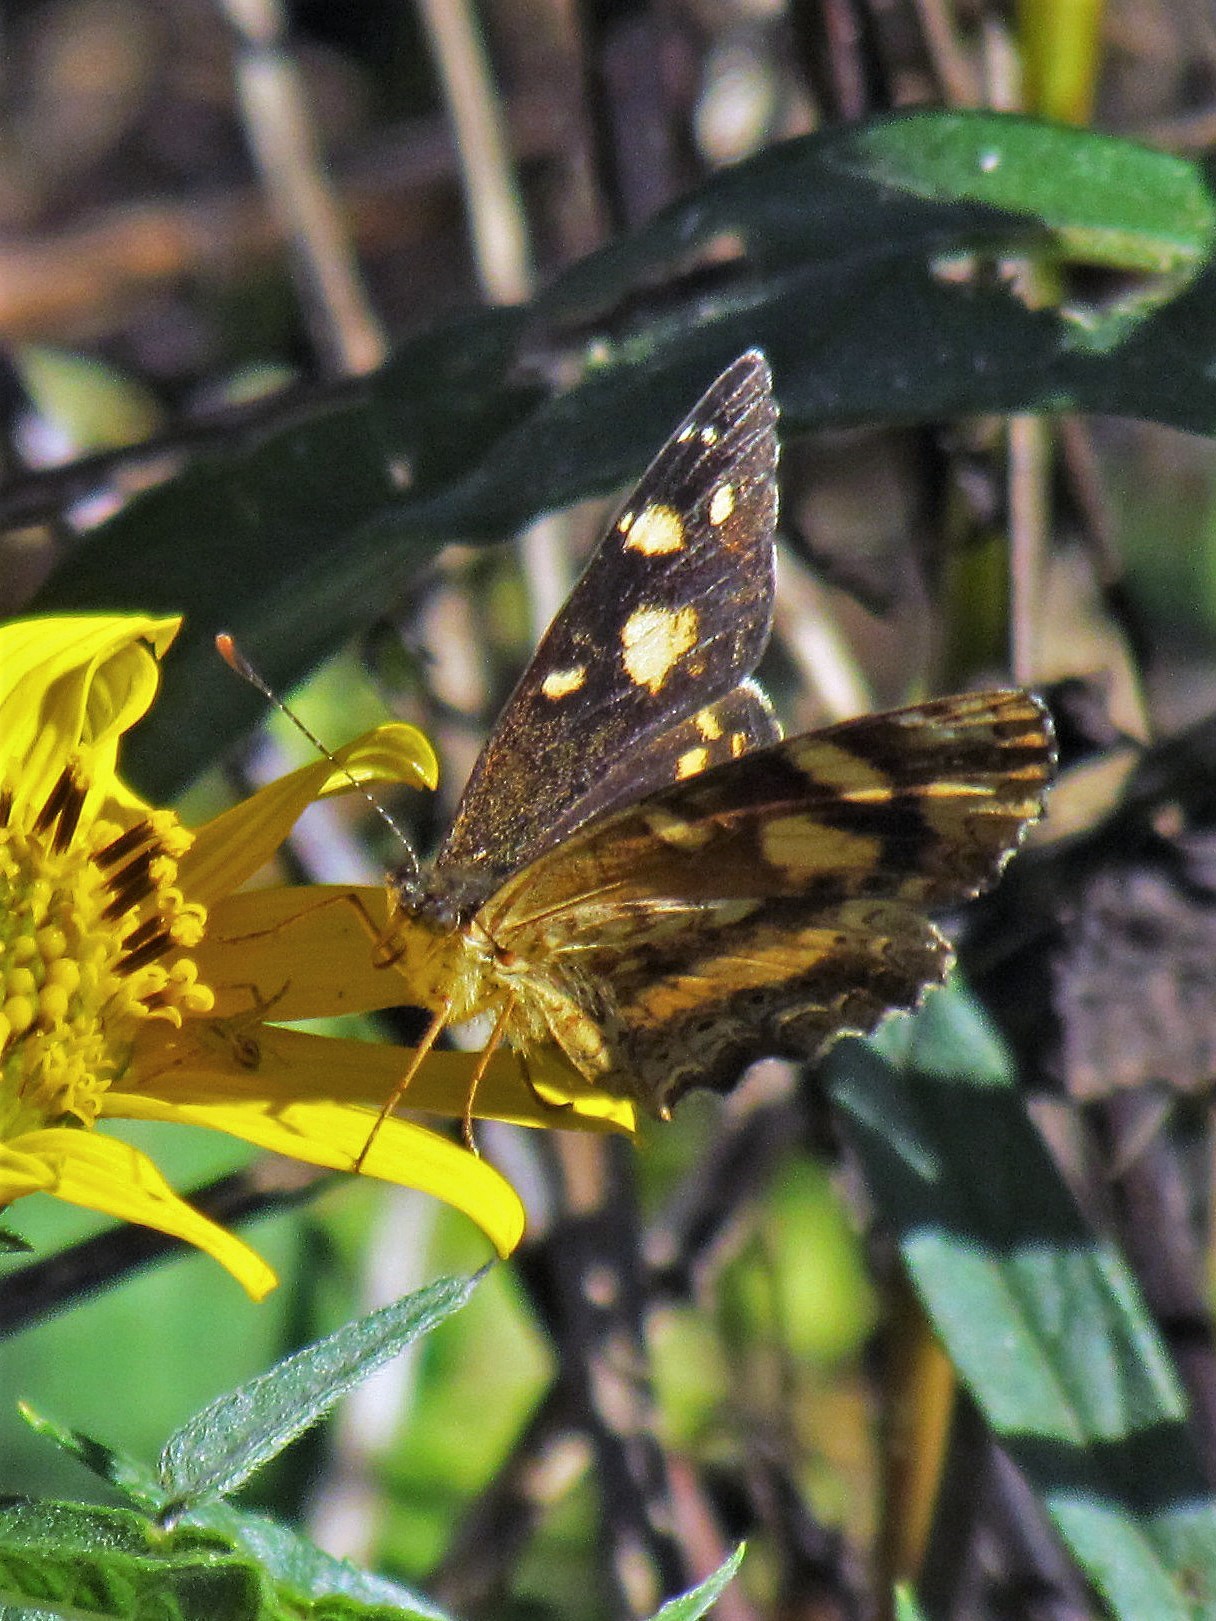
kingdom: Animalia
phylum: Arthropoda
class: Insecta
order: Lepidoptera
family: Nymphalidae
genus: Telenassa
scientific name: Telenassa berenice
